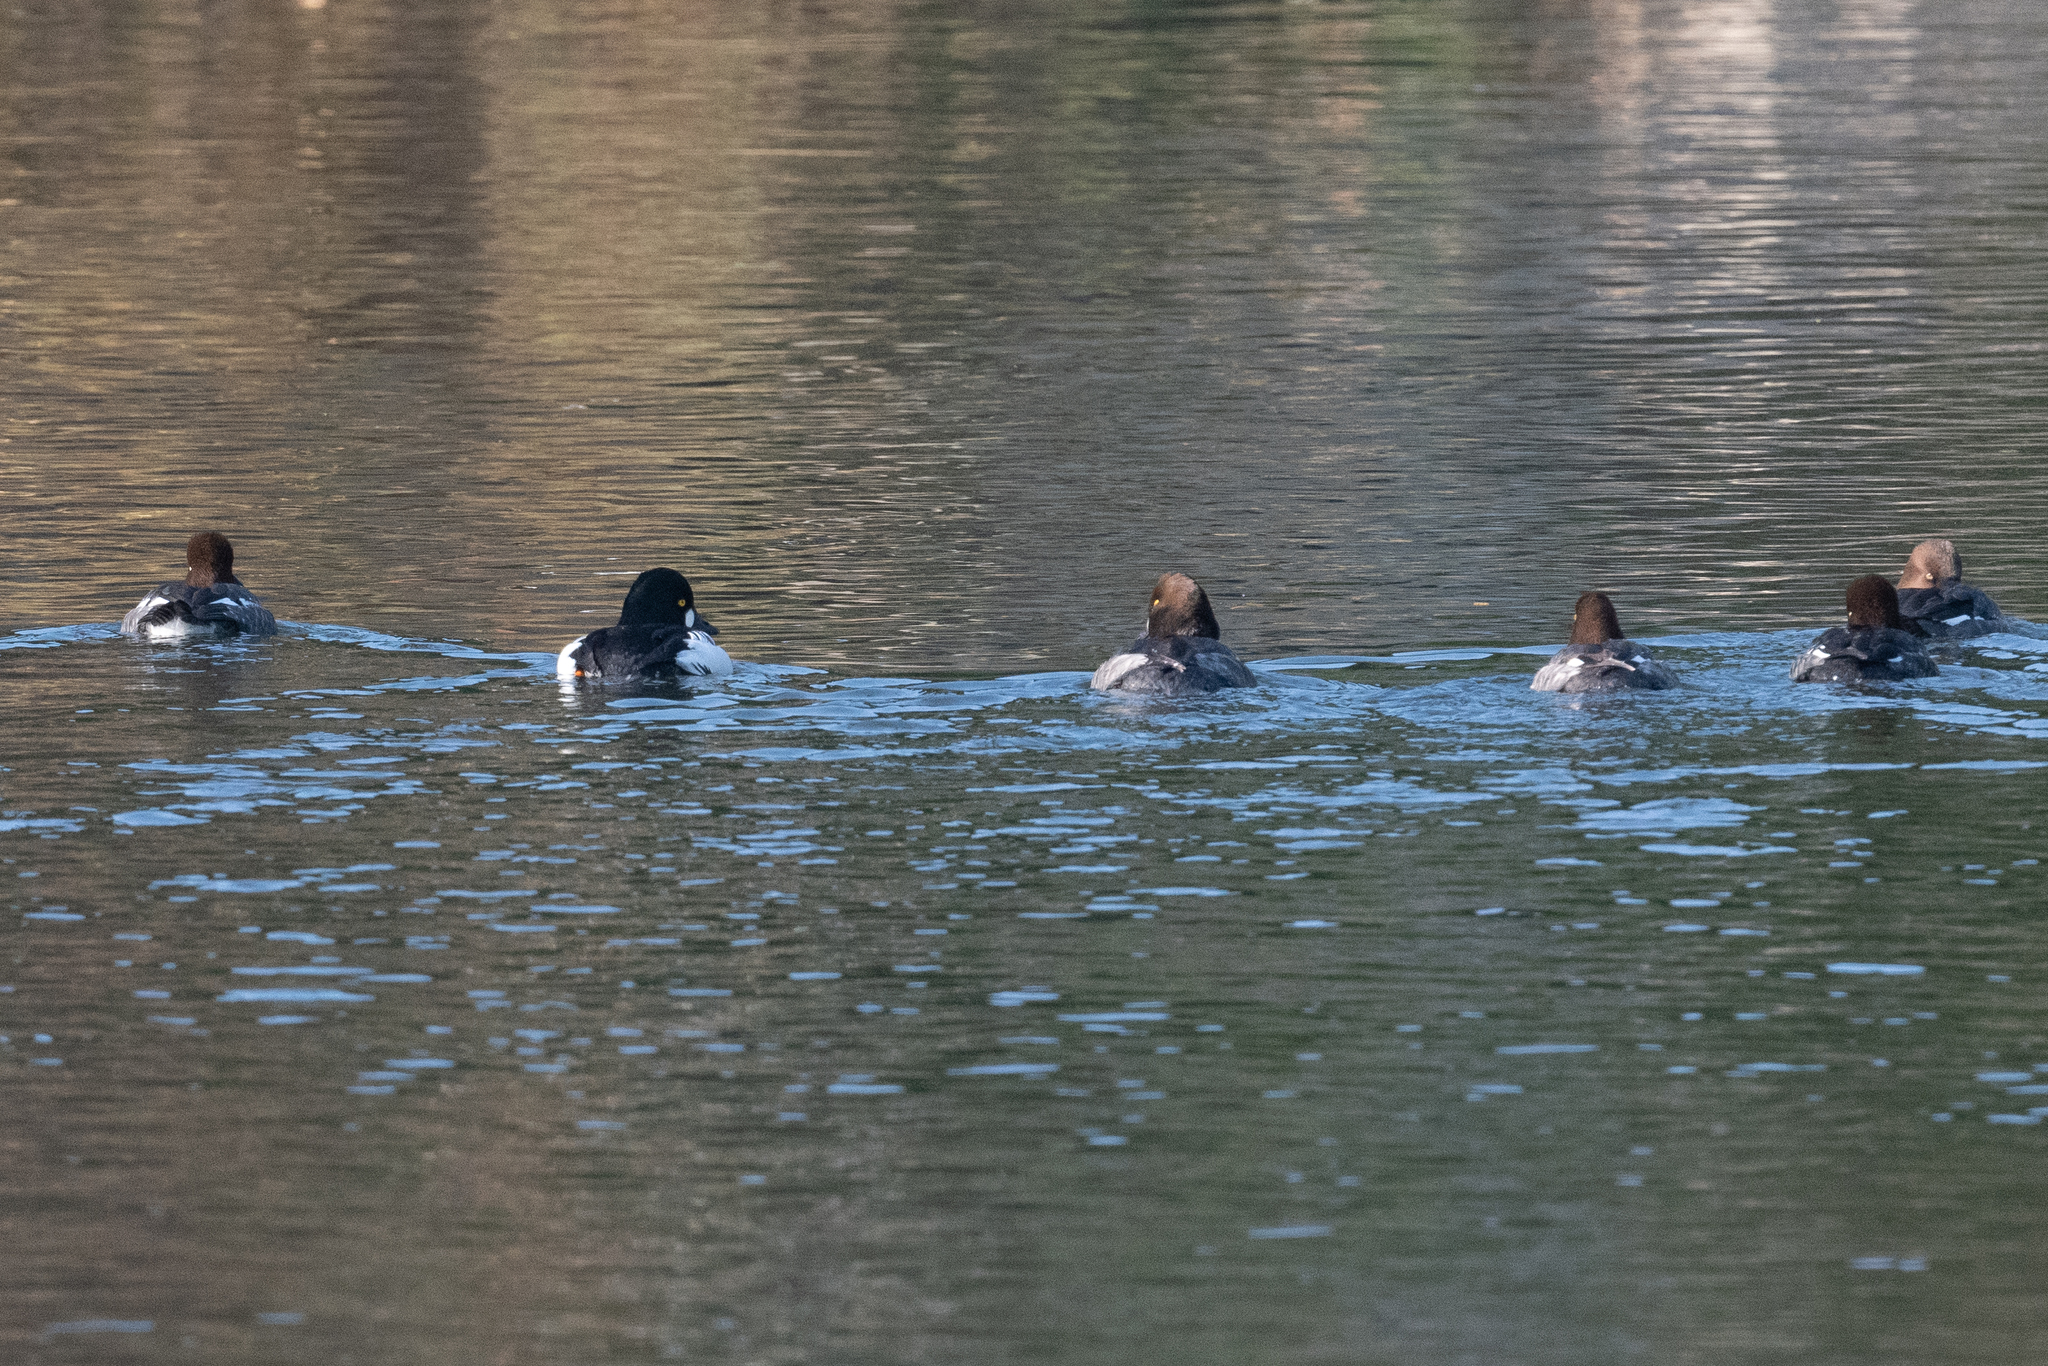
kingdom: Animalia
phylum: Chordata
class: Aves
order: Anseriformes
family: Anatidae
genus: Bucephala
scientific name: Bucephala clangula
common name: Common goldeneye
